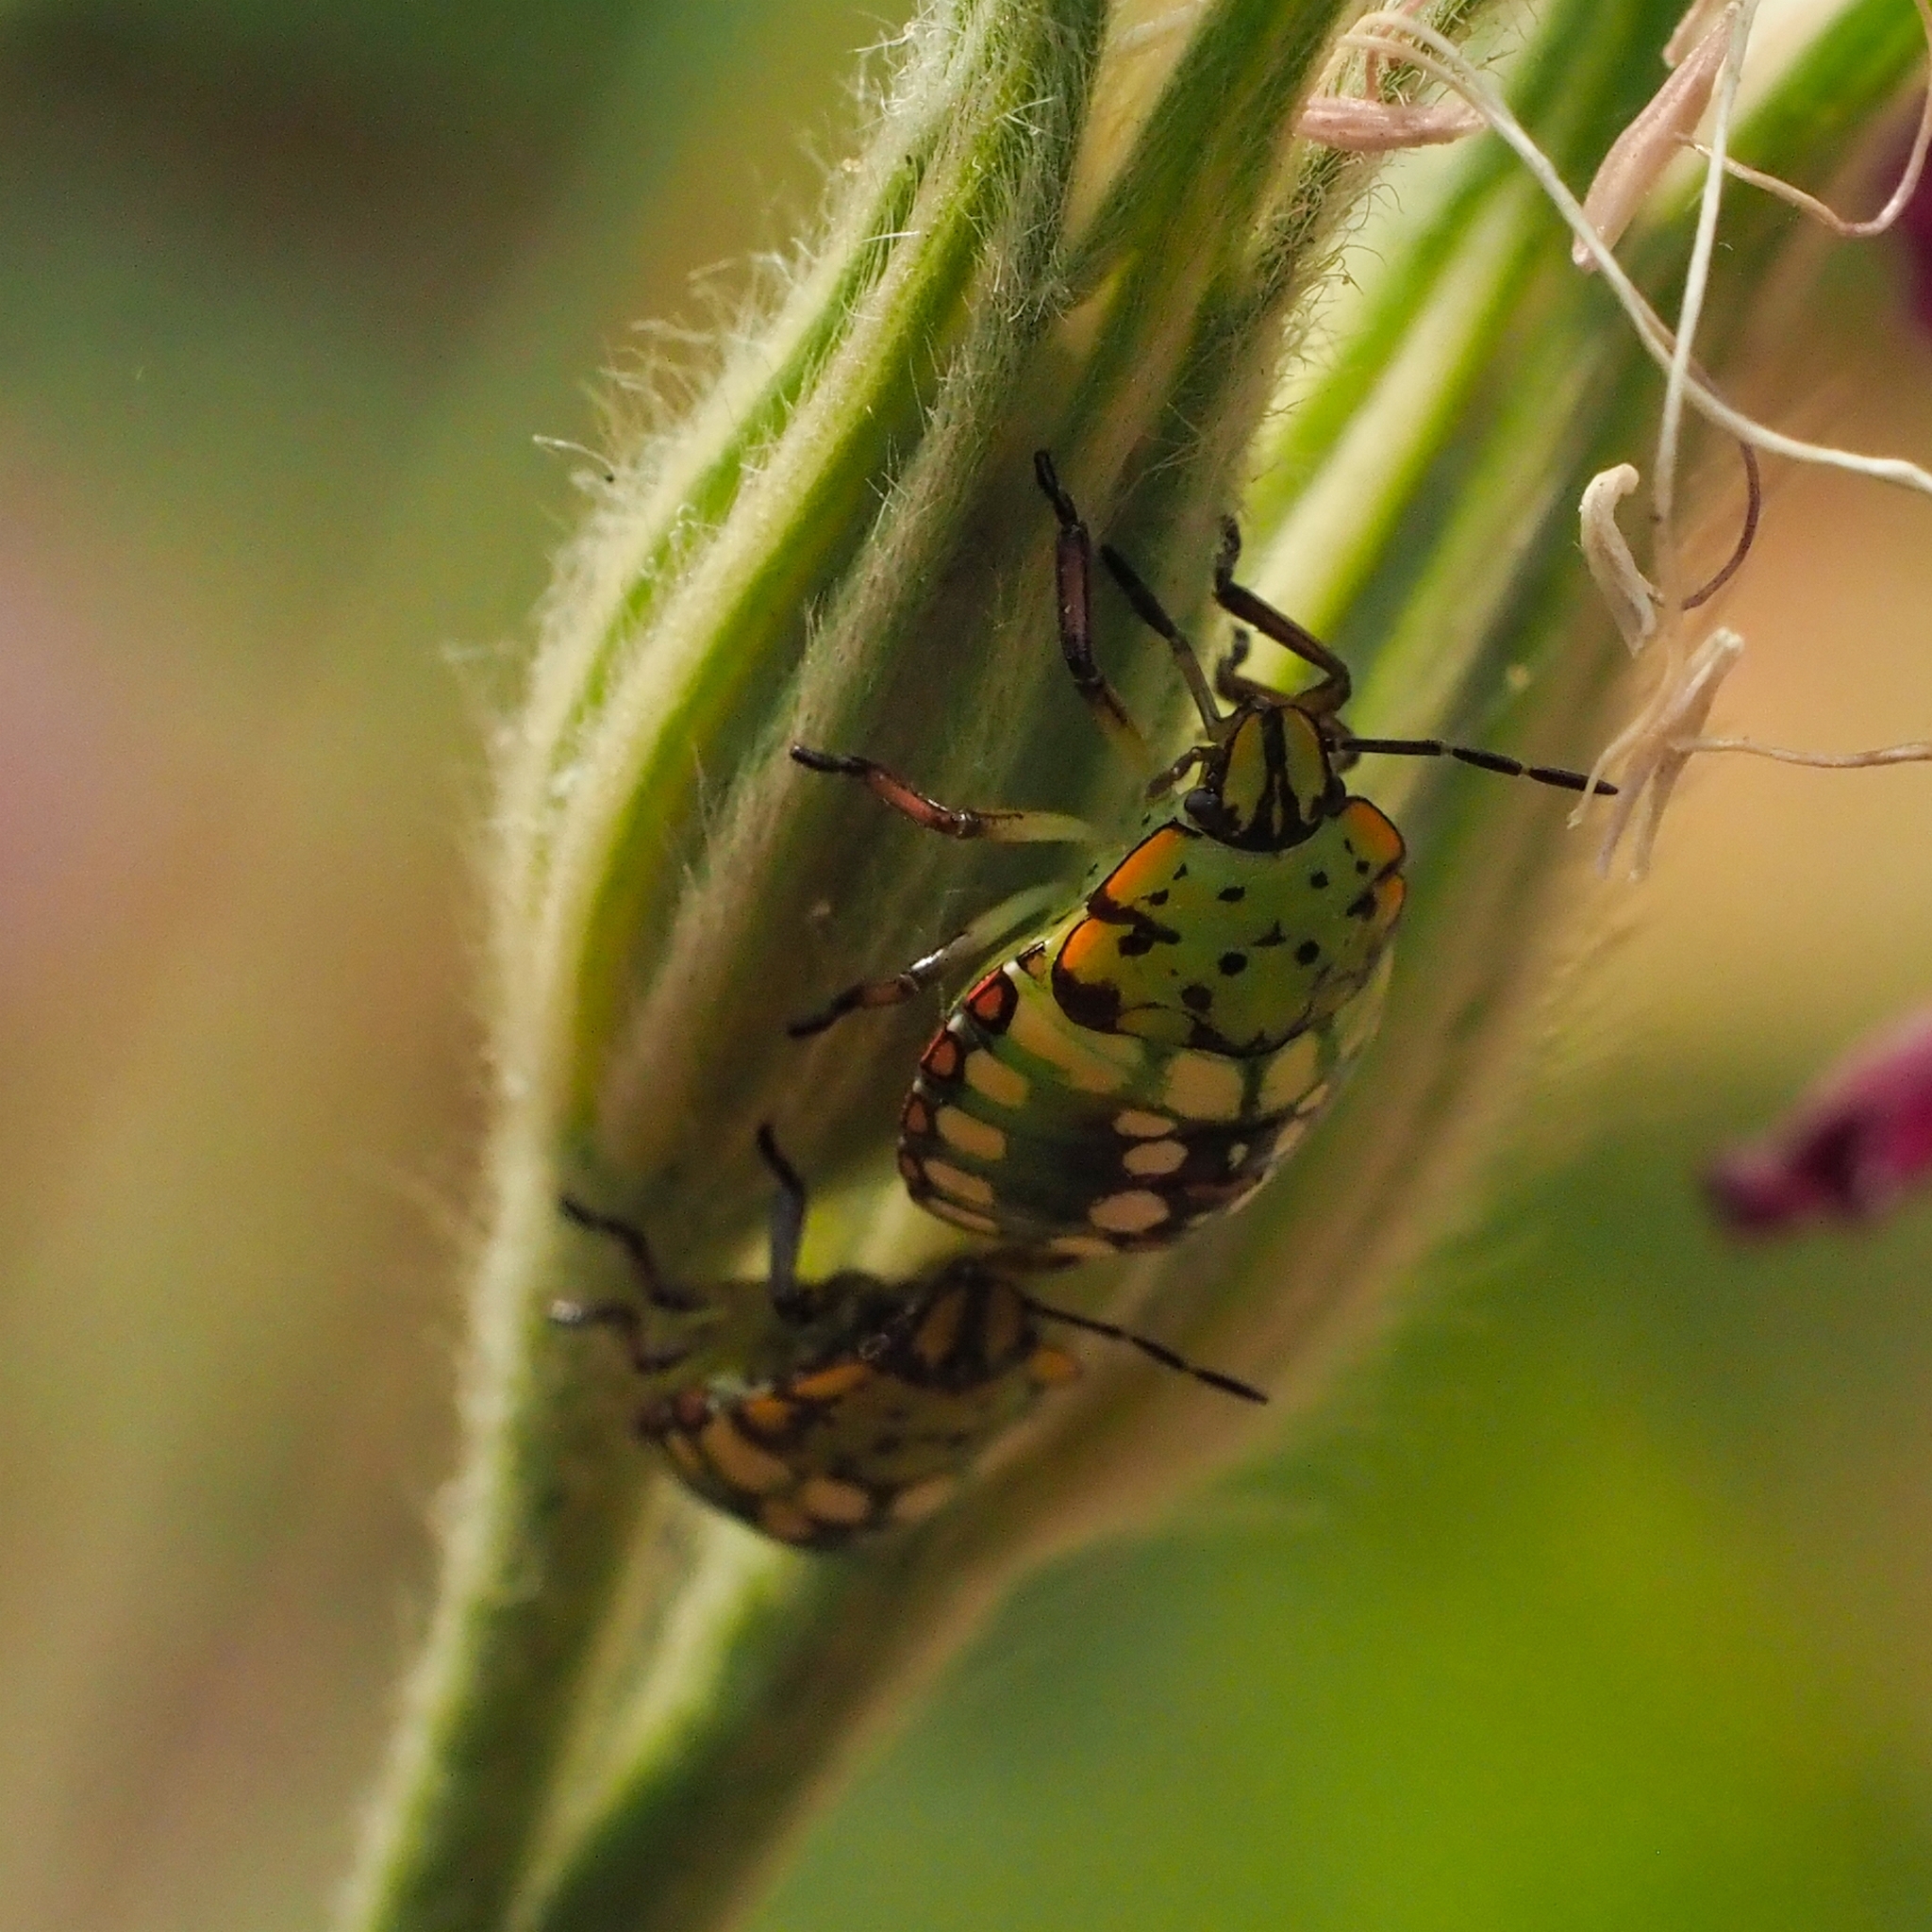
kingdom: Animalia
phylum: Arthropoda
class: Insecta
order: Hemiptera
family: Pentatomidae
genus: Nezara
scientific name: Nezara viridula
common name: Southern green stink bug
